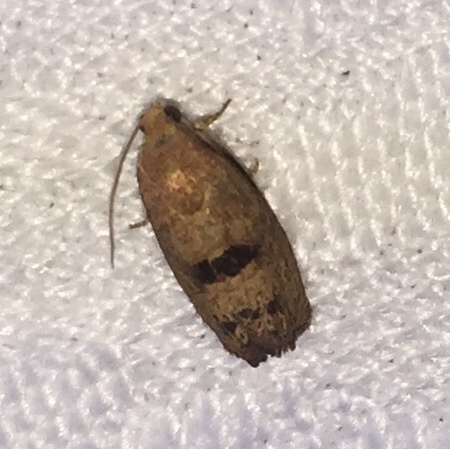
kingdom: Animalia
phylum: Arthropoda
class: Insecta
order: Lepidoptera
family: Tortricidae
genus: Cydia
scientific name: Cydia latiferreana
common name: Filbertworm moth
